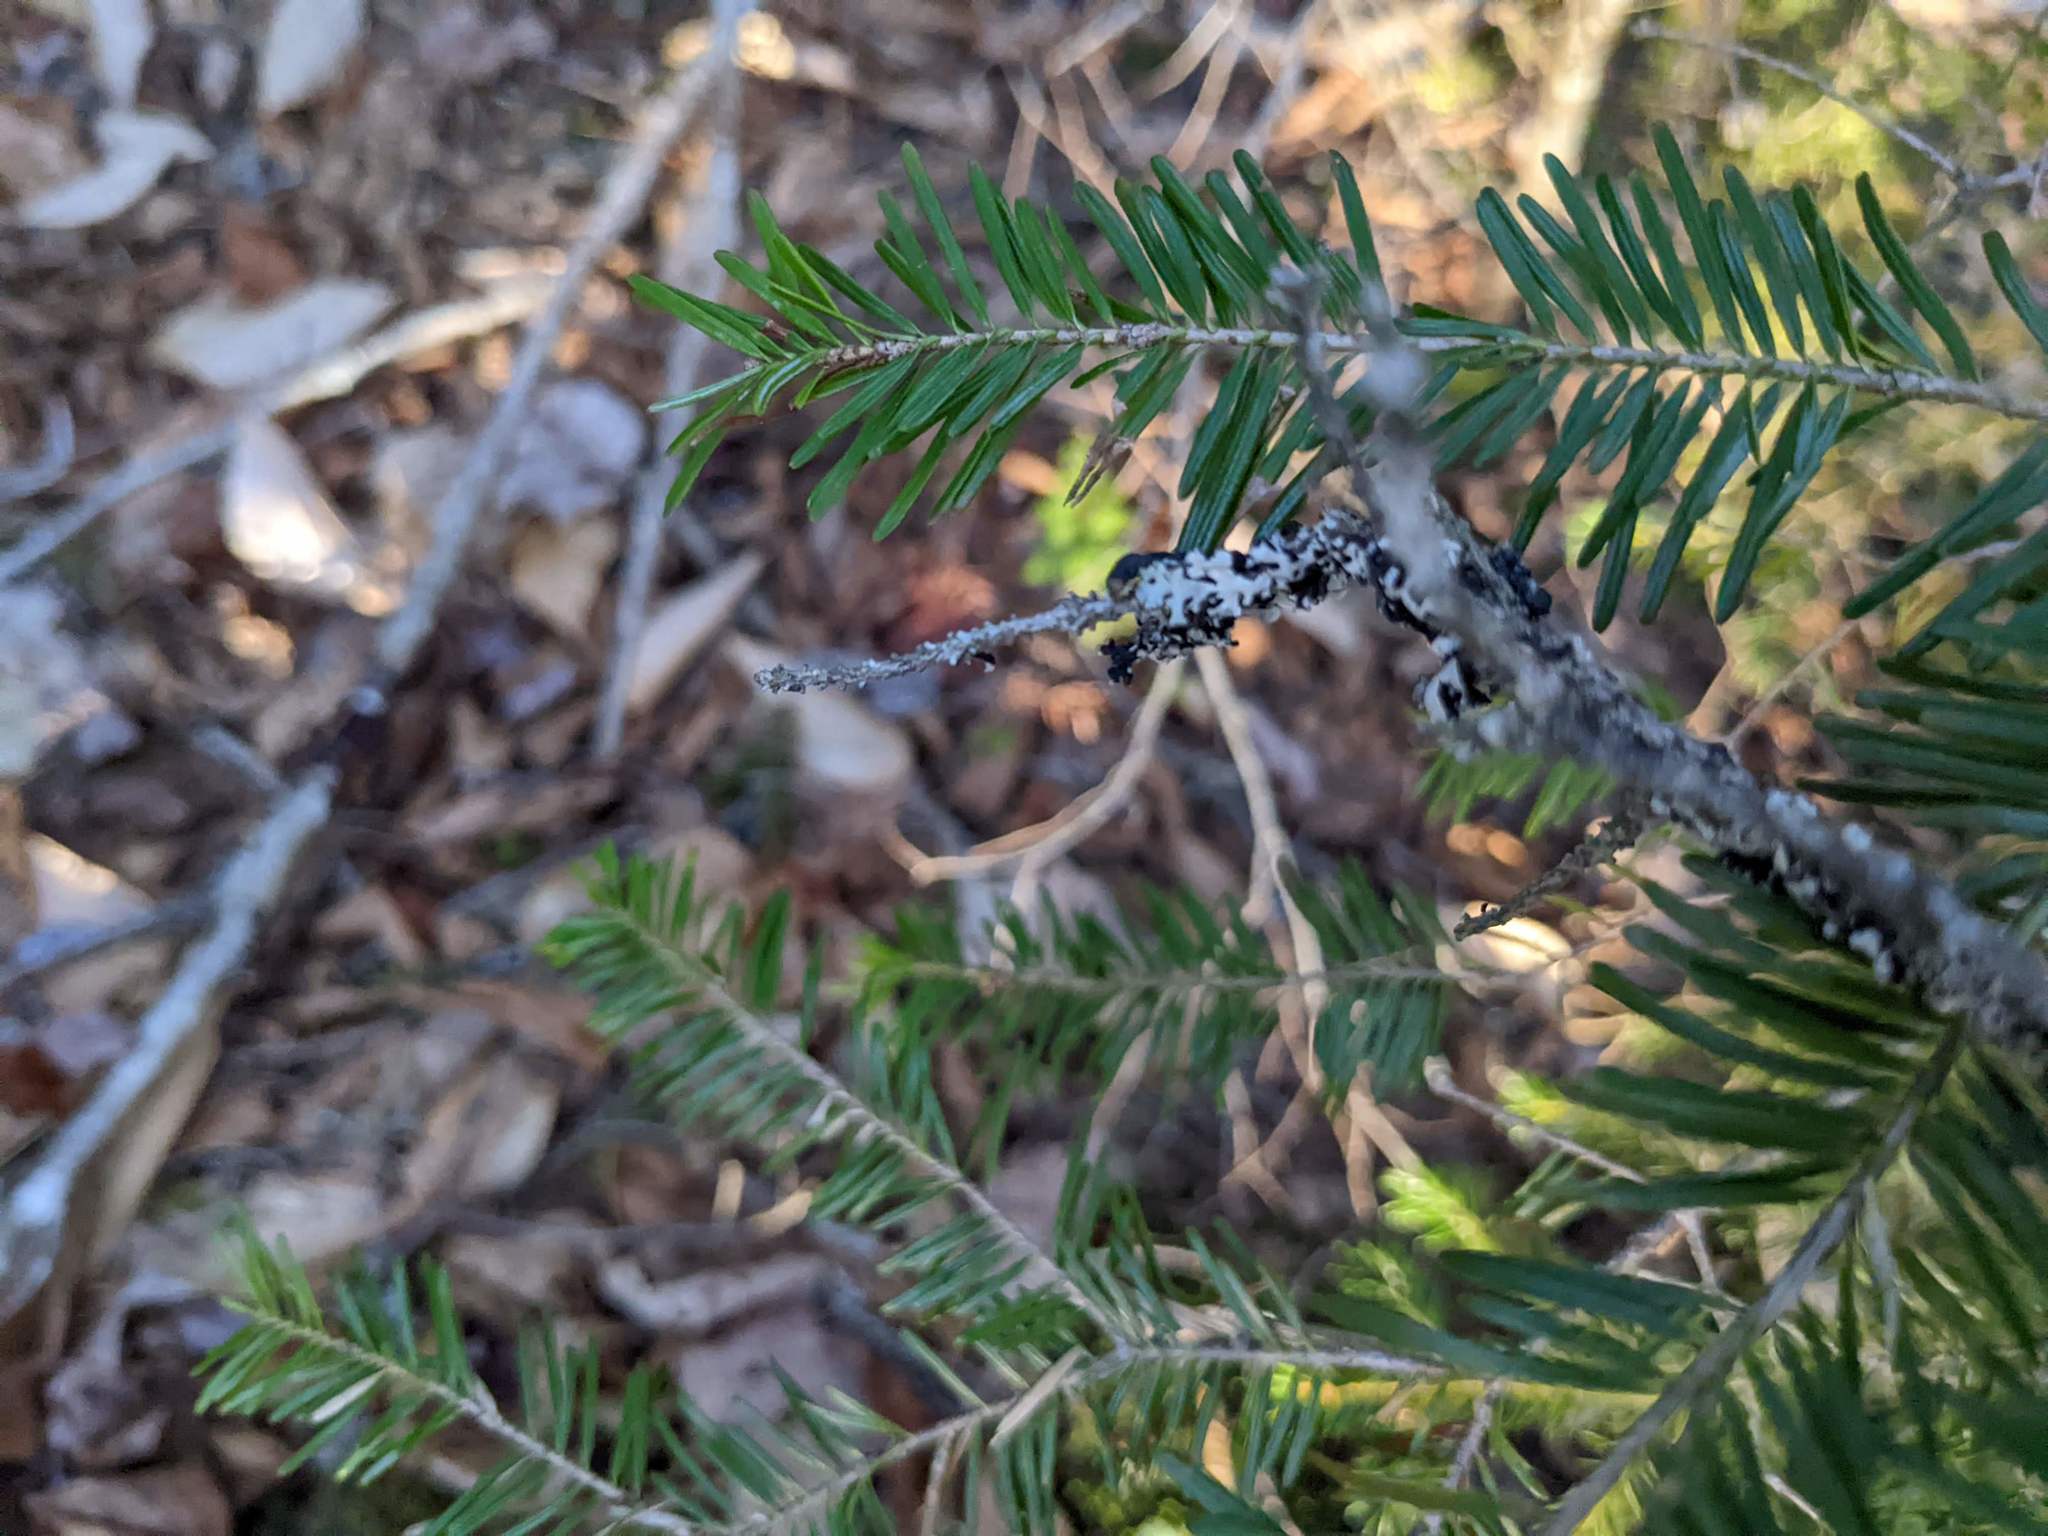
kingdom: Plantae
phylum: Tracheophyta
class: Pinopsida
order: Pinales
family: Pinaceae
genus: Abies
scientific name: Abies balsamea
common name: Balsam fir
